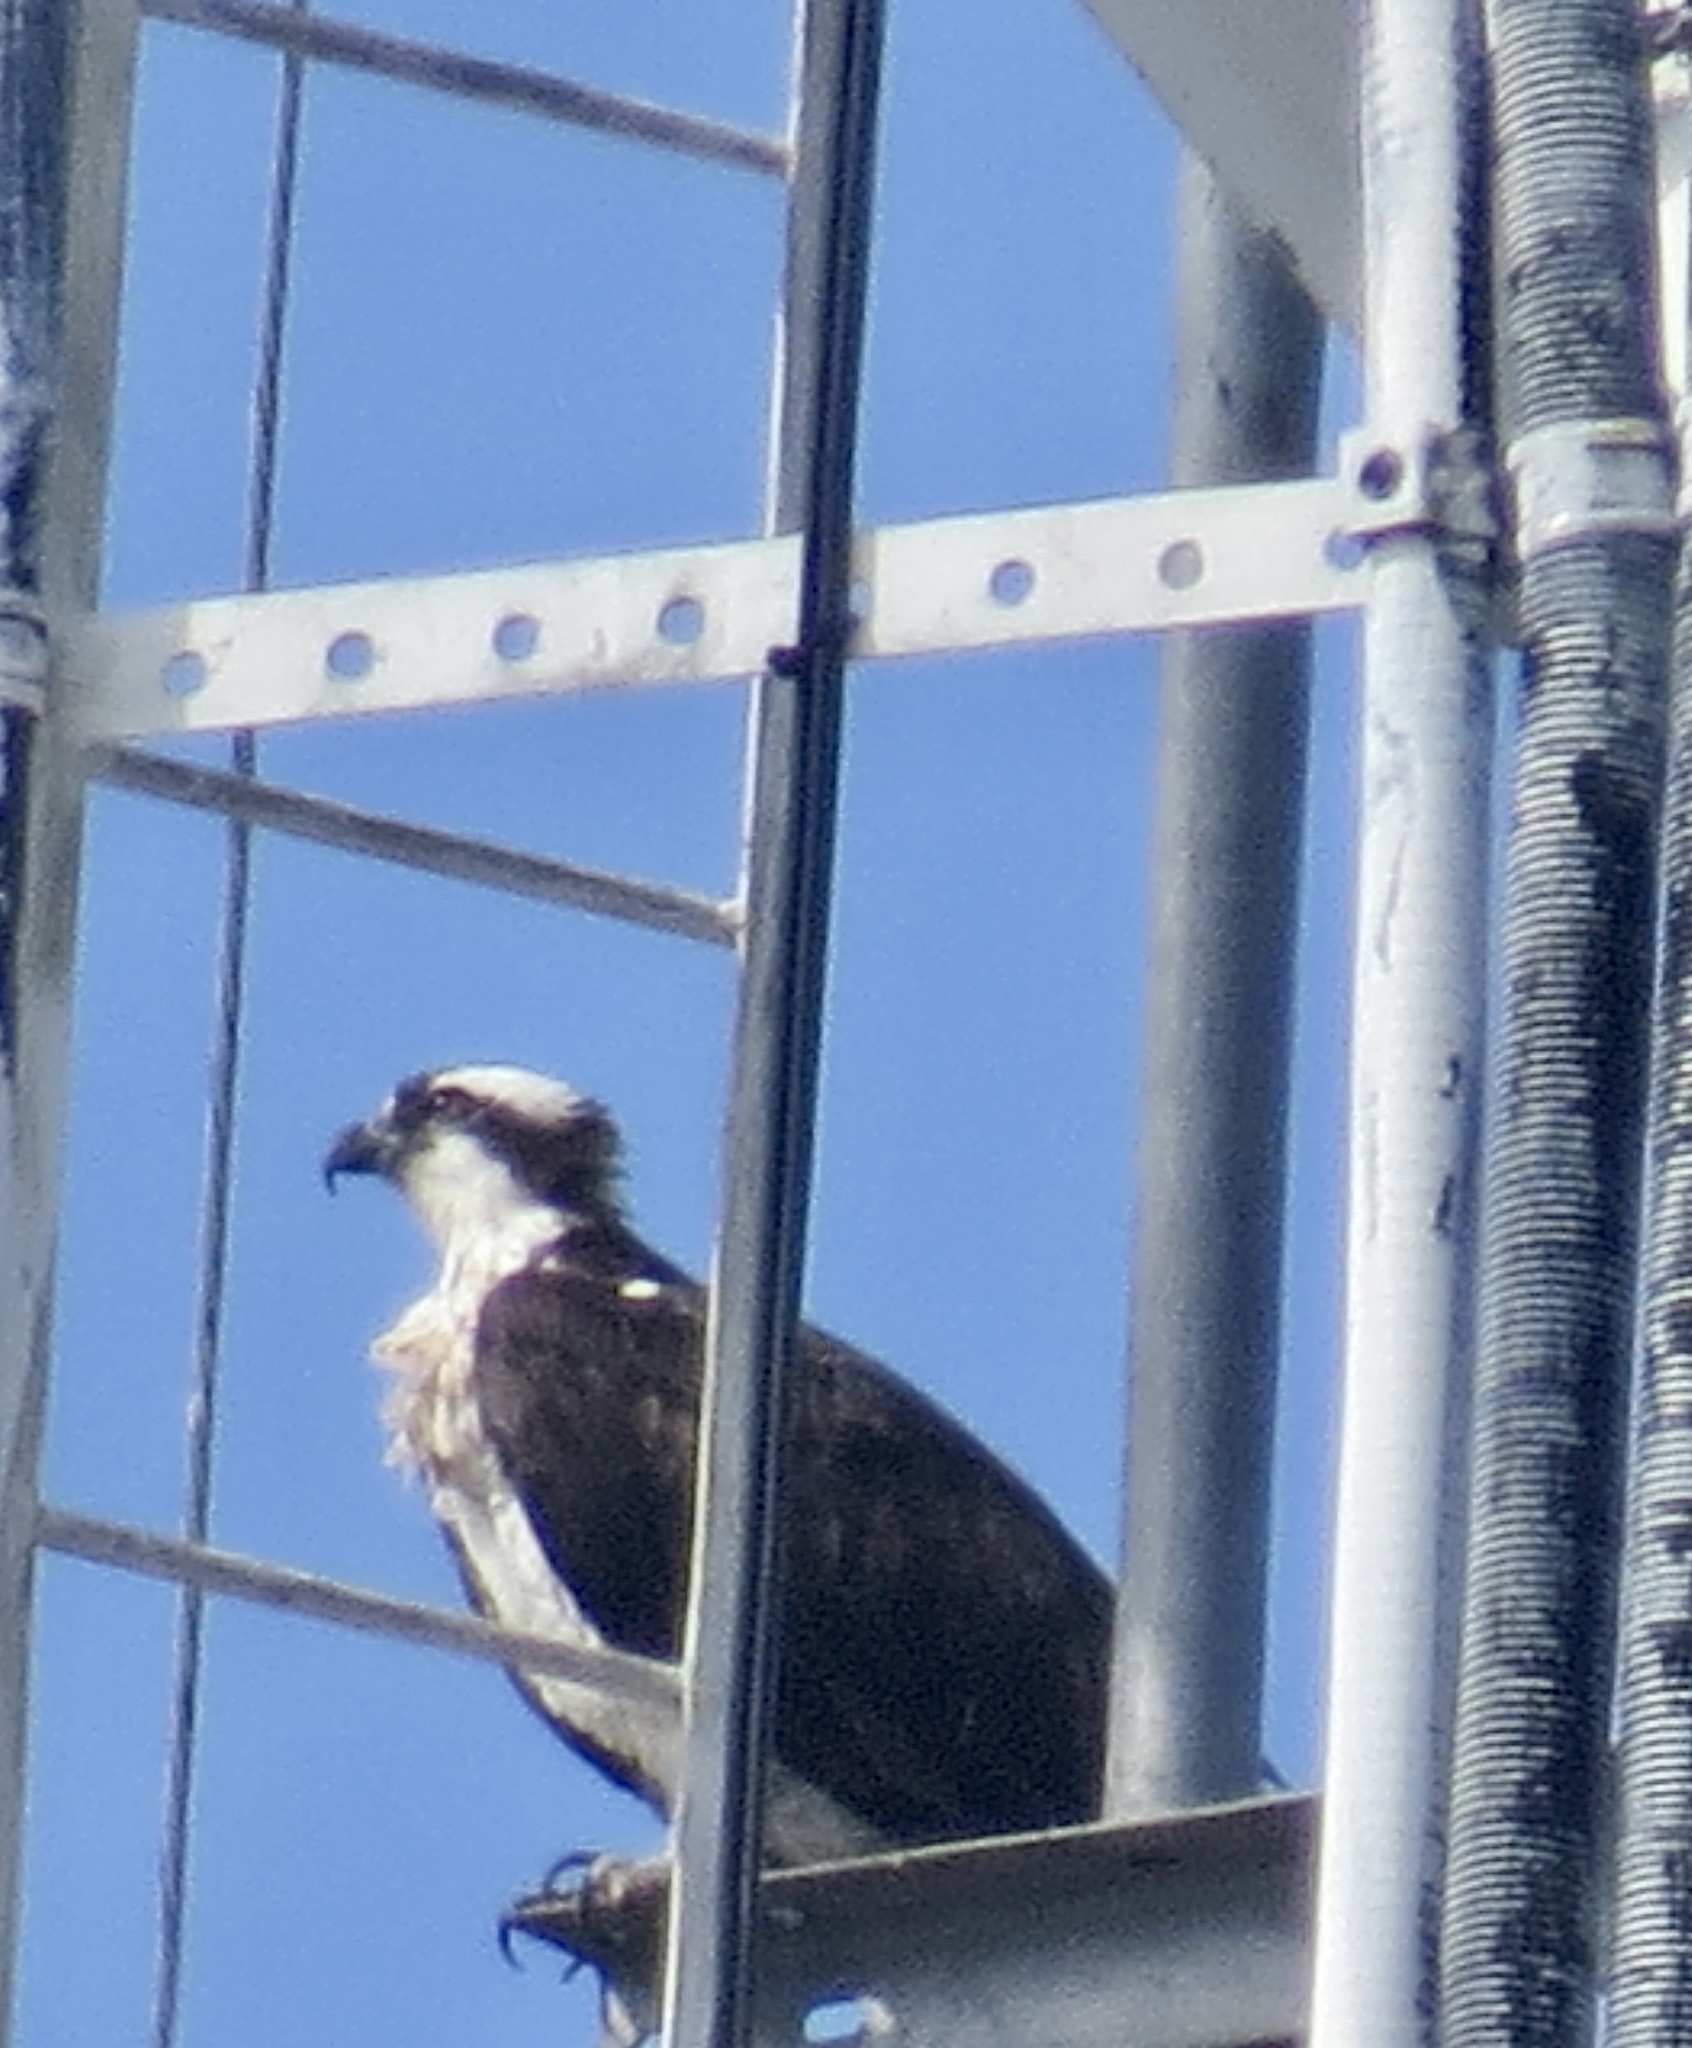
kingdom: Animalia
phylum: Chordata
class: Aves
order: Accipitriformes
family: Pandionidae
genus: Pandion
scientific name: Pandion haliaetus
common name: Osprey
